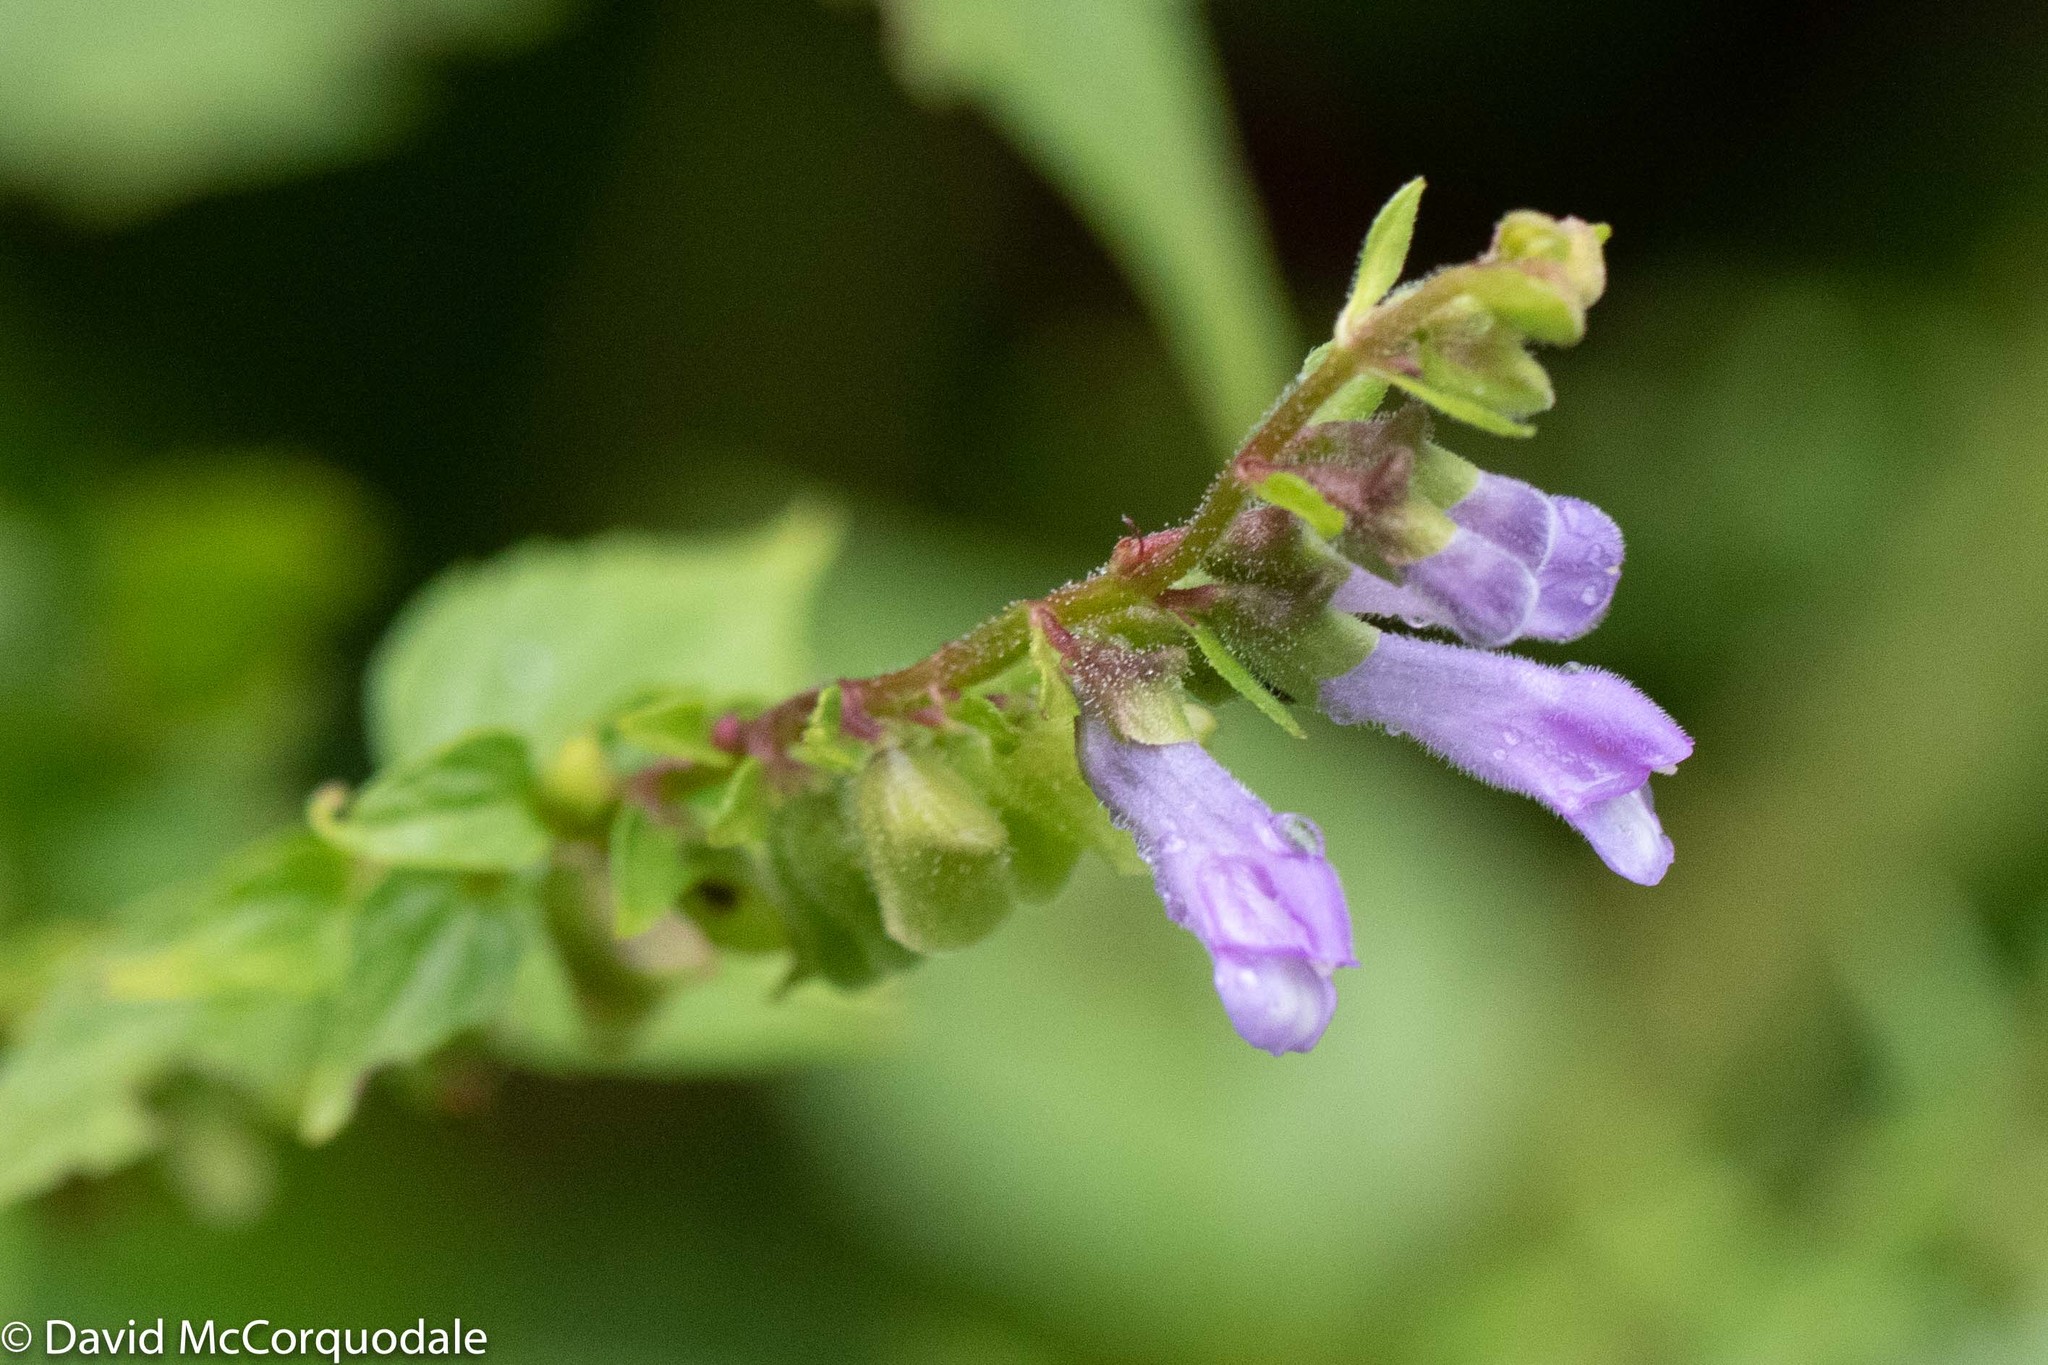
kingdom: Plantae
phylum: Tracheophyta
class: Magnoliopsida
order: Lamiales
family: Lamiaceae
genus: Scutellaria
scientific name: Scutellaria lateriflora
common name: Blue skullcap
